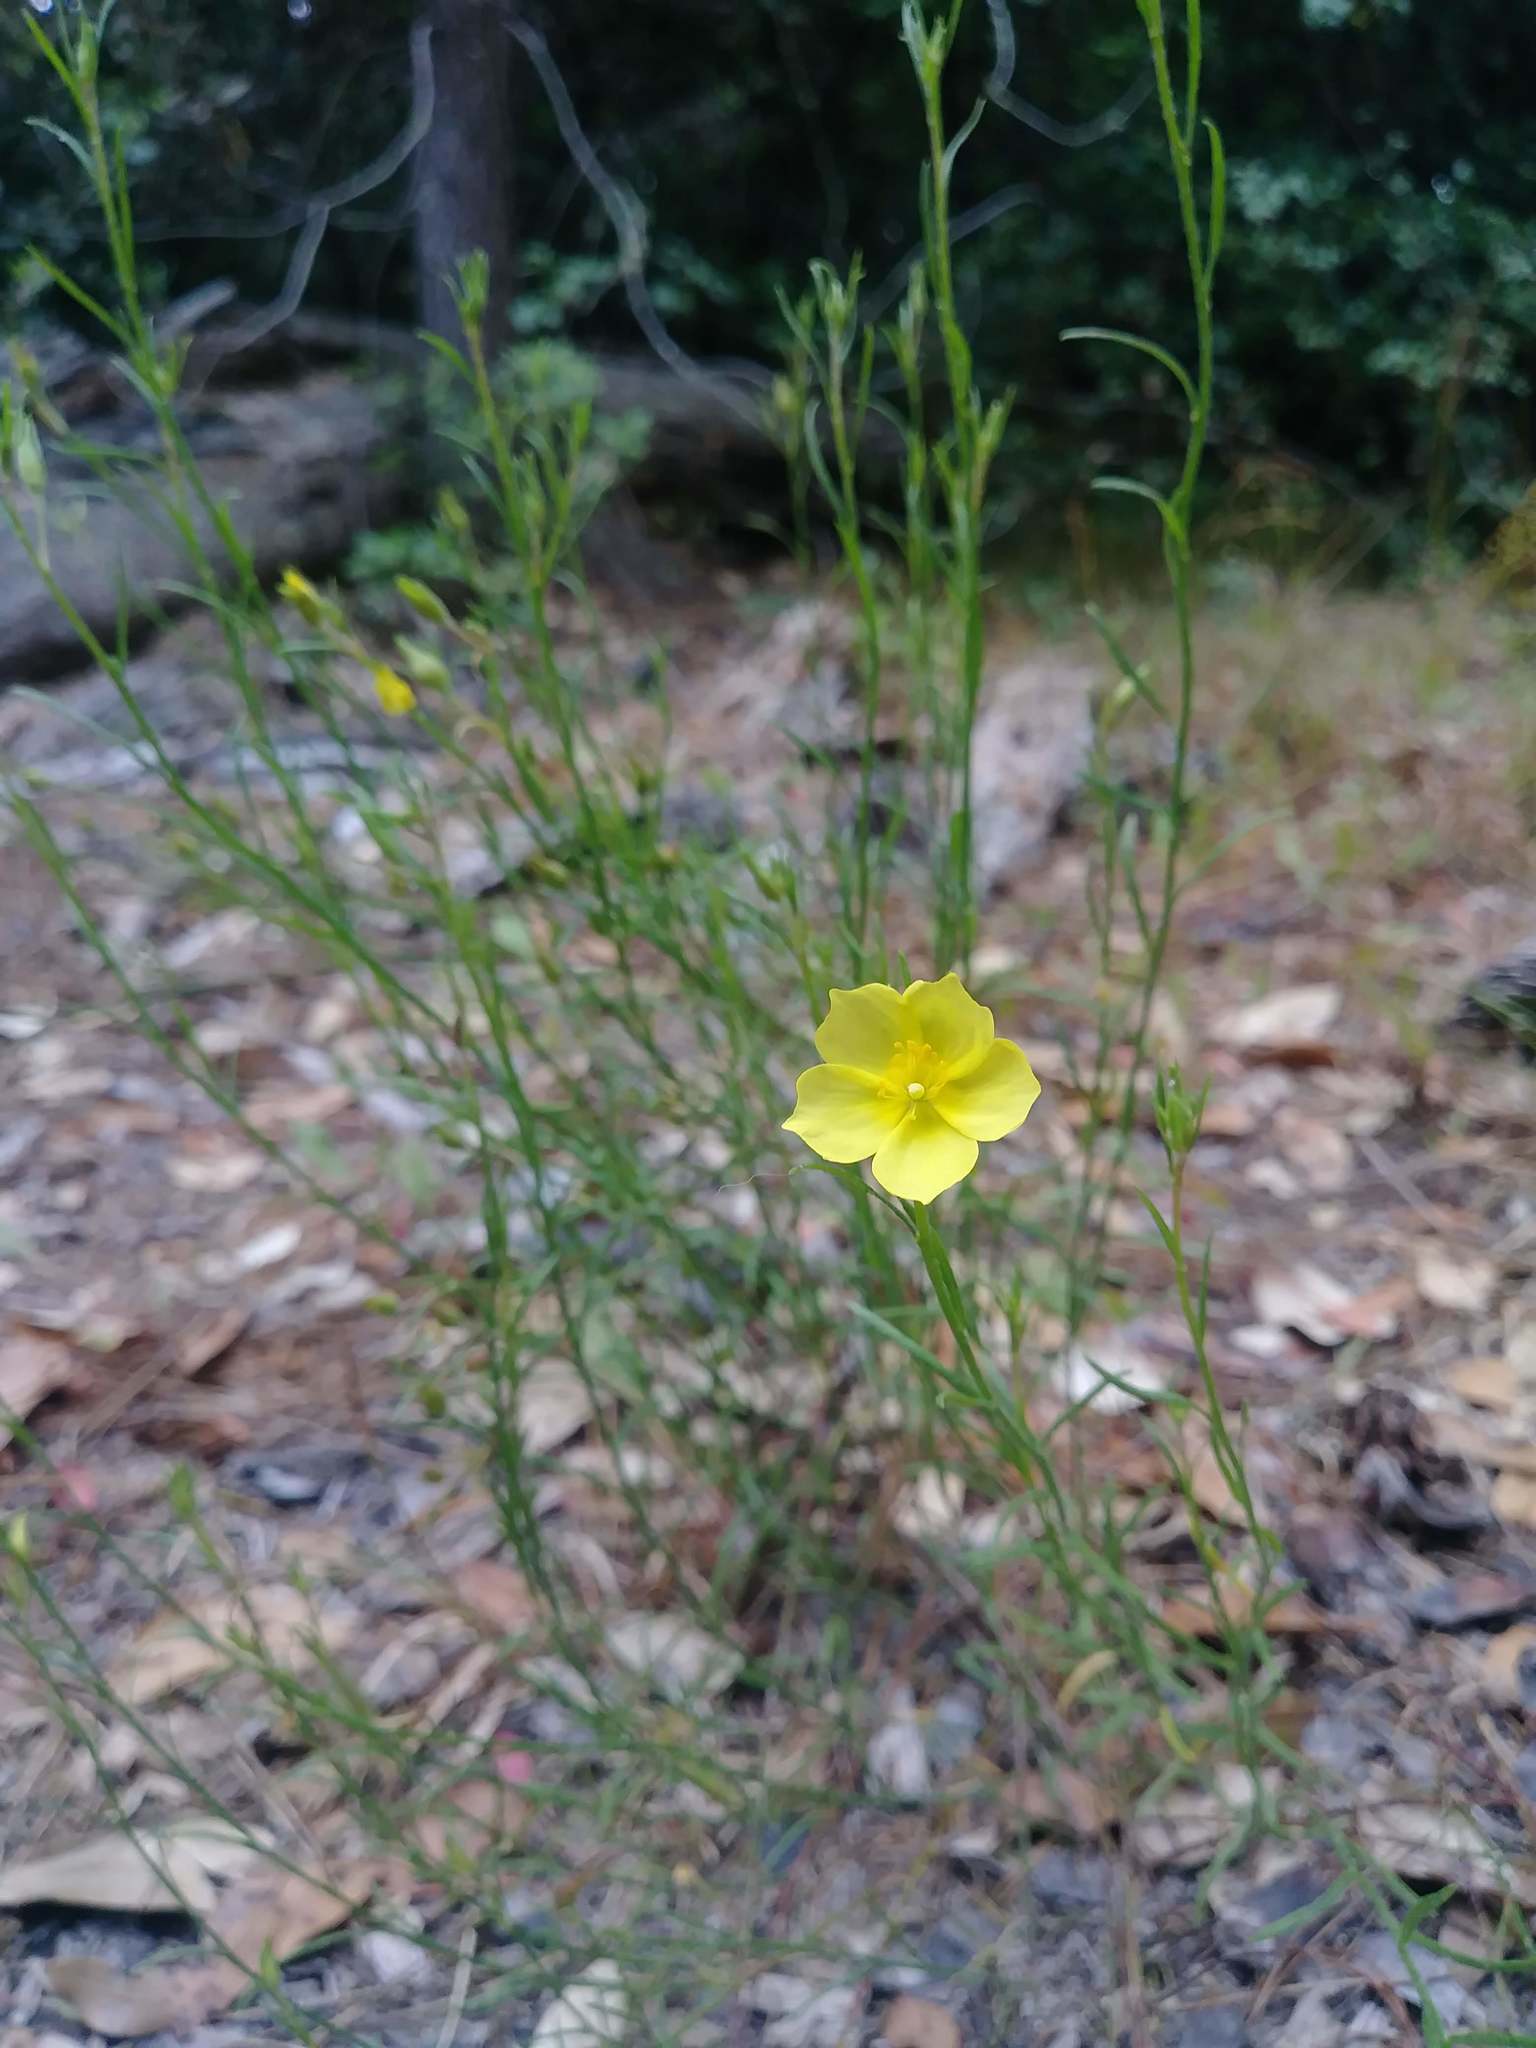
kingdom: Plantae
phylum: Tracheophyta
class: Magnoliopsida
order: Malvales
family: Cistaceae
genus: Crocanthemum
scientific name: Crocanthemum scoparium
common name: Broom-rose
